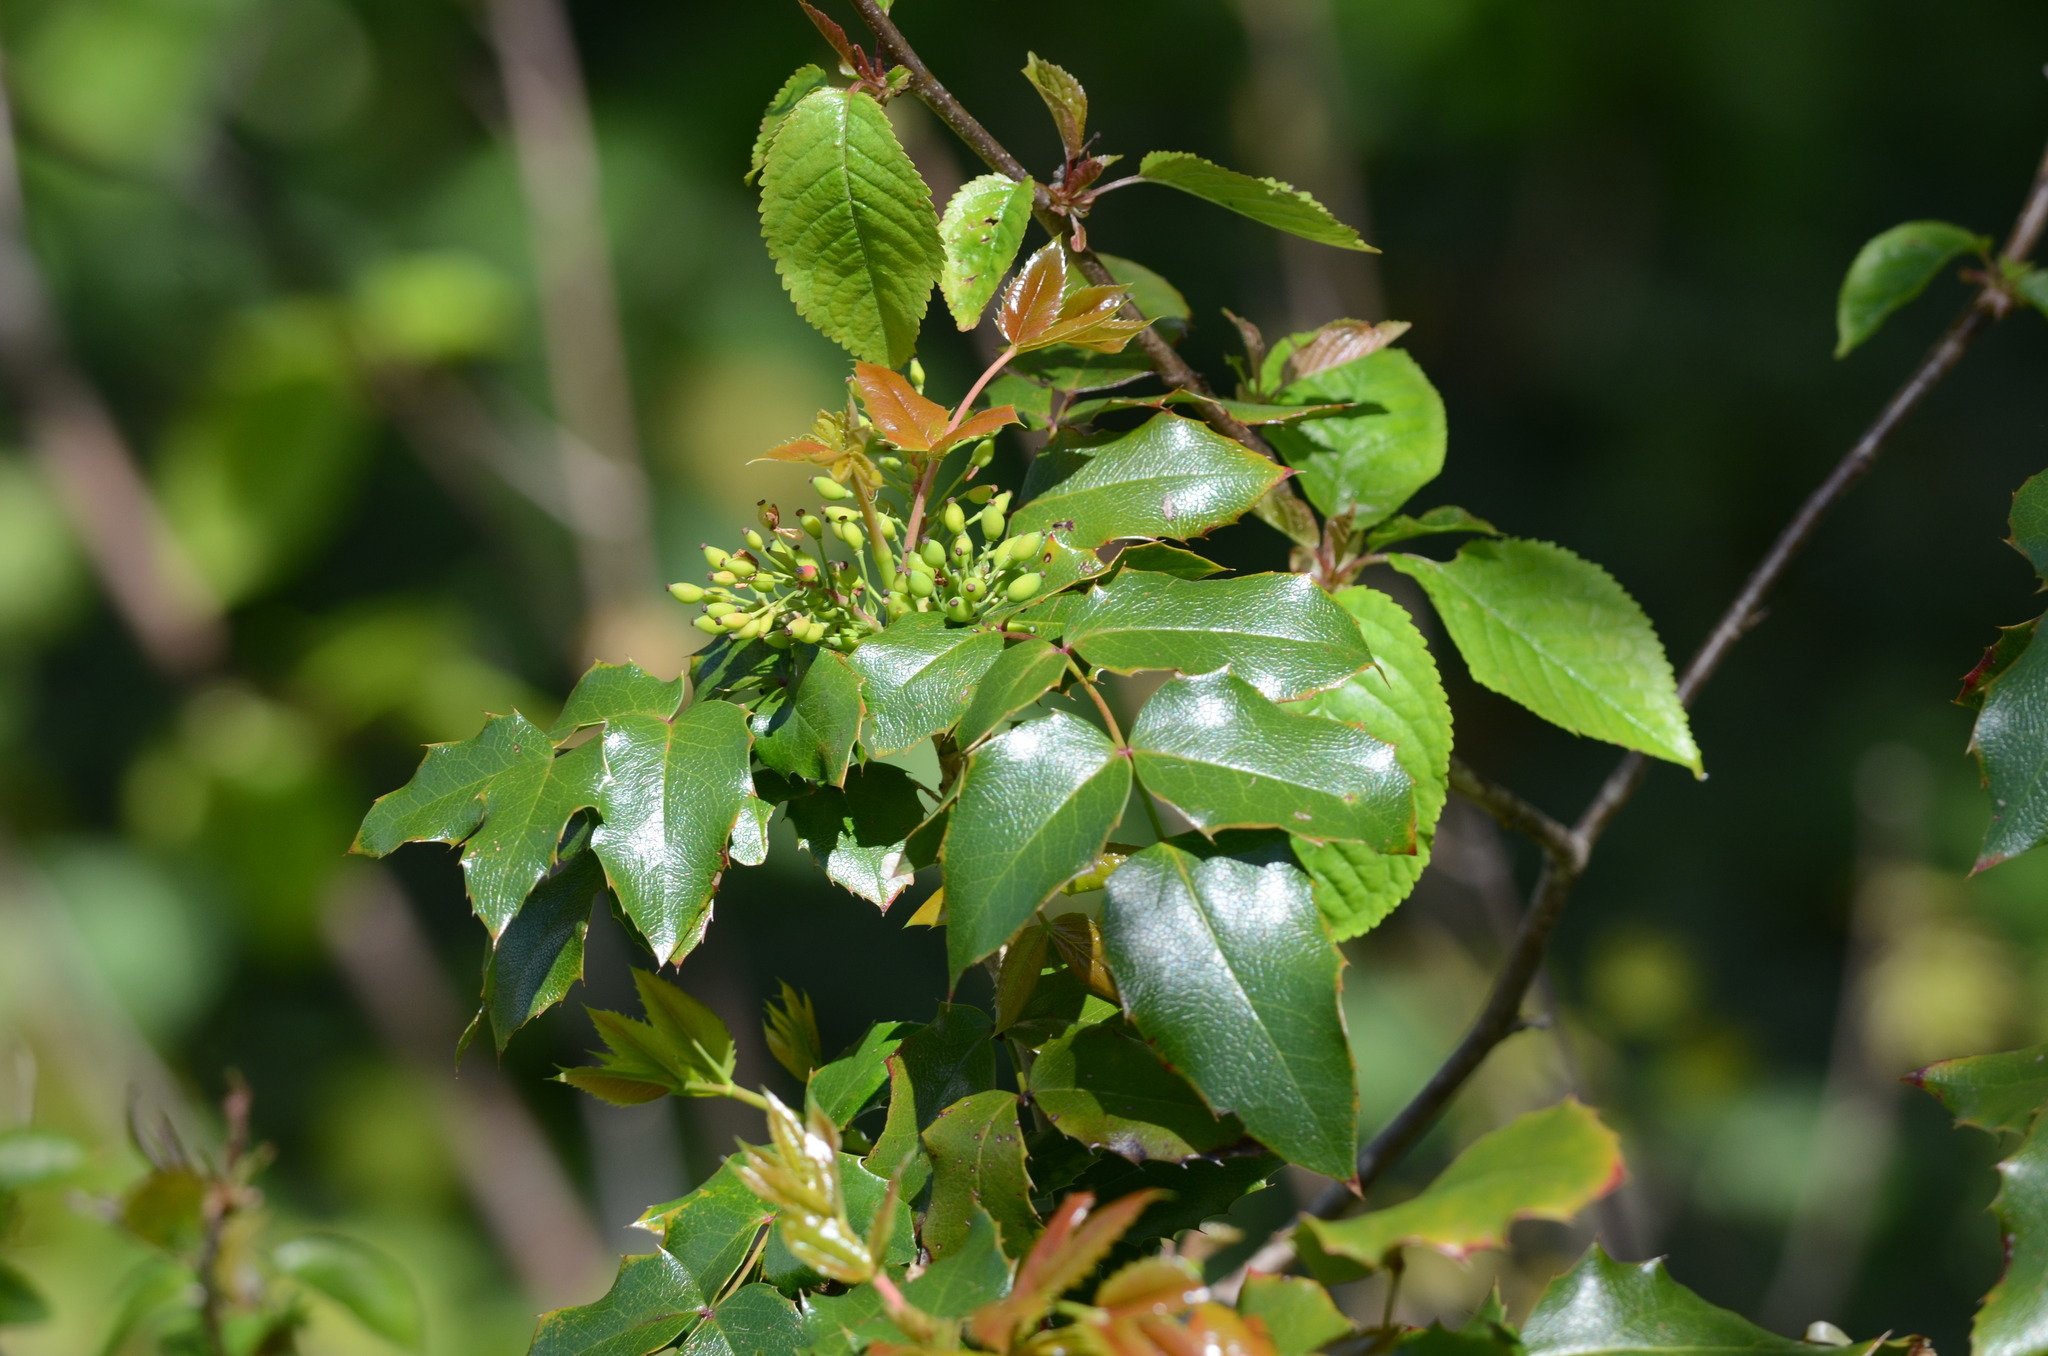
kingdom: Plantae
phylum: Tracheophyta
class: Magnoliopsida
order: Ranunculales
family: Berberidaceae
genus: Mahonia
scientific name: Mahonia aquifolium
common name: Oregon-grape
